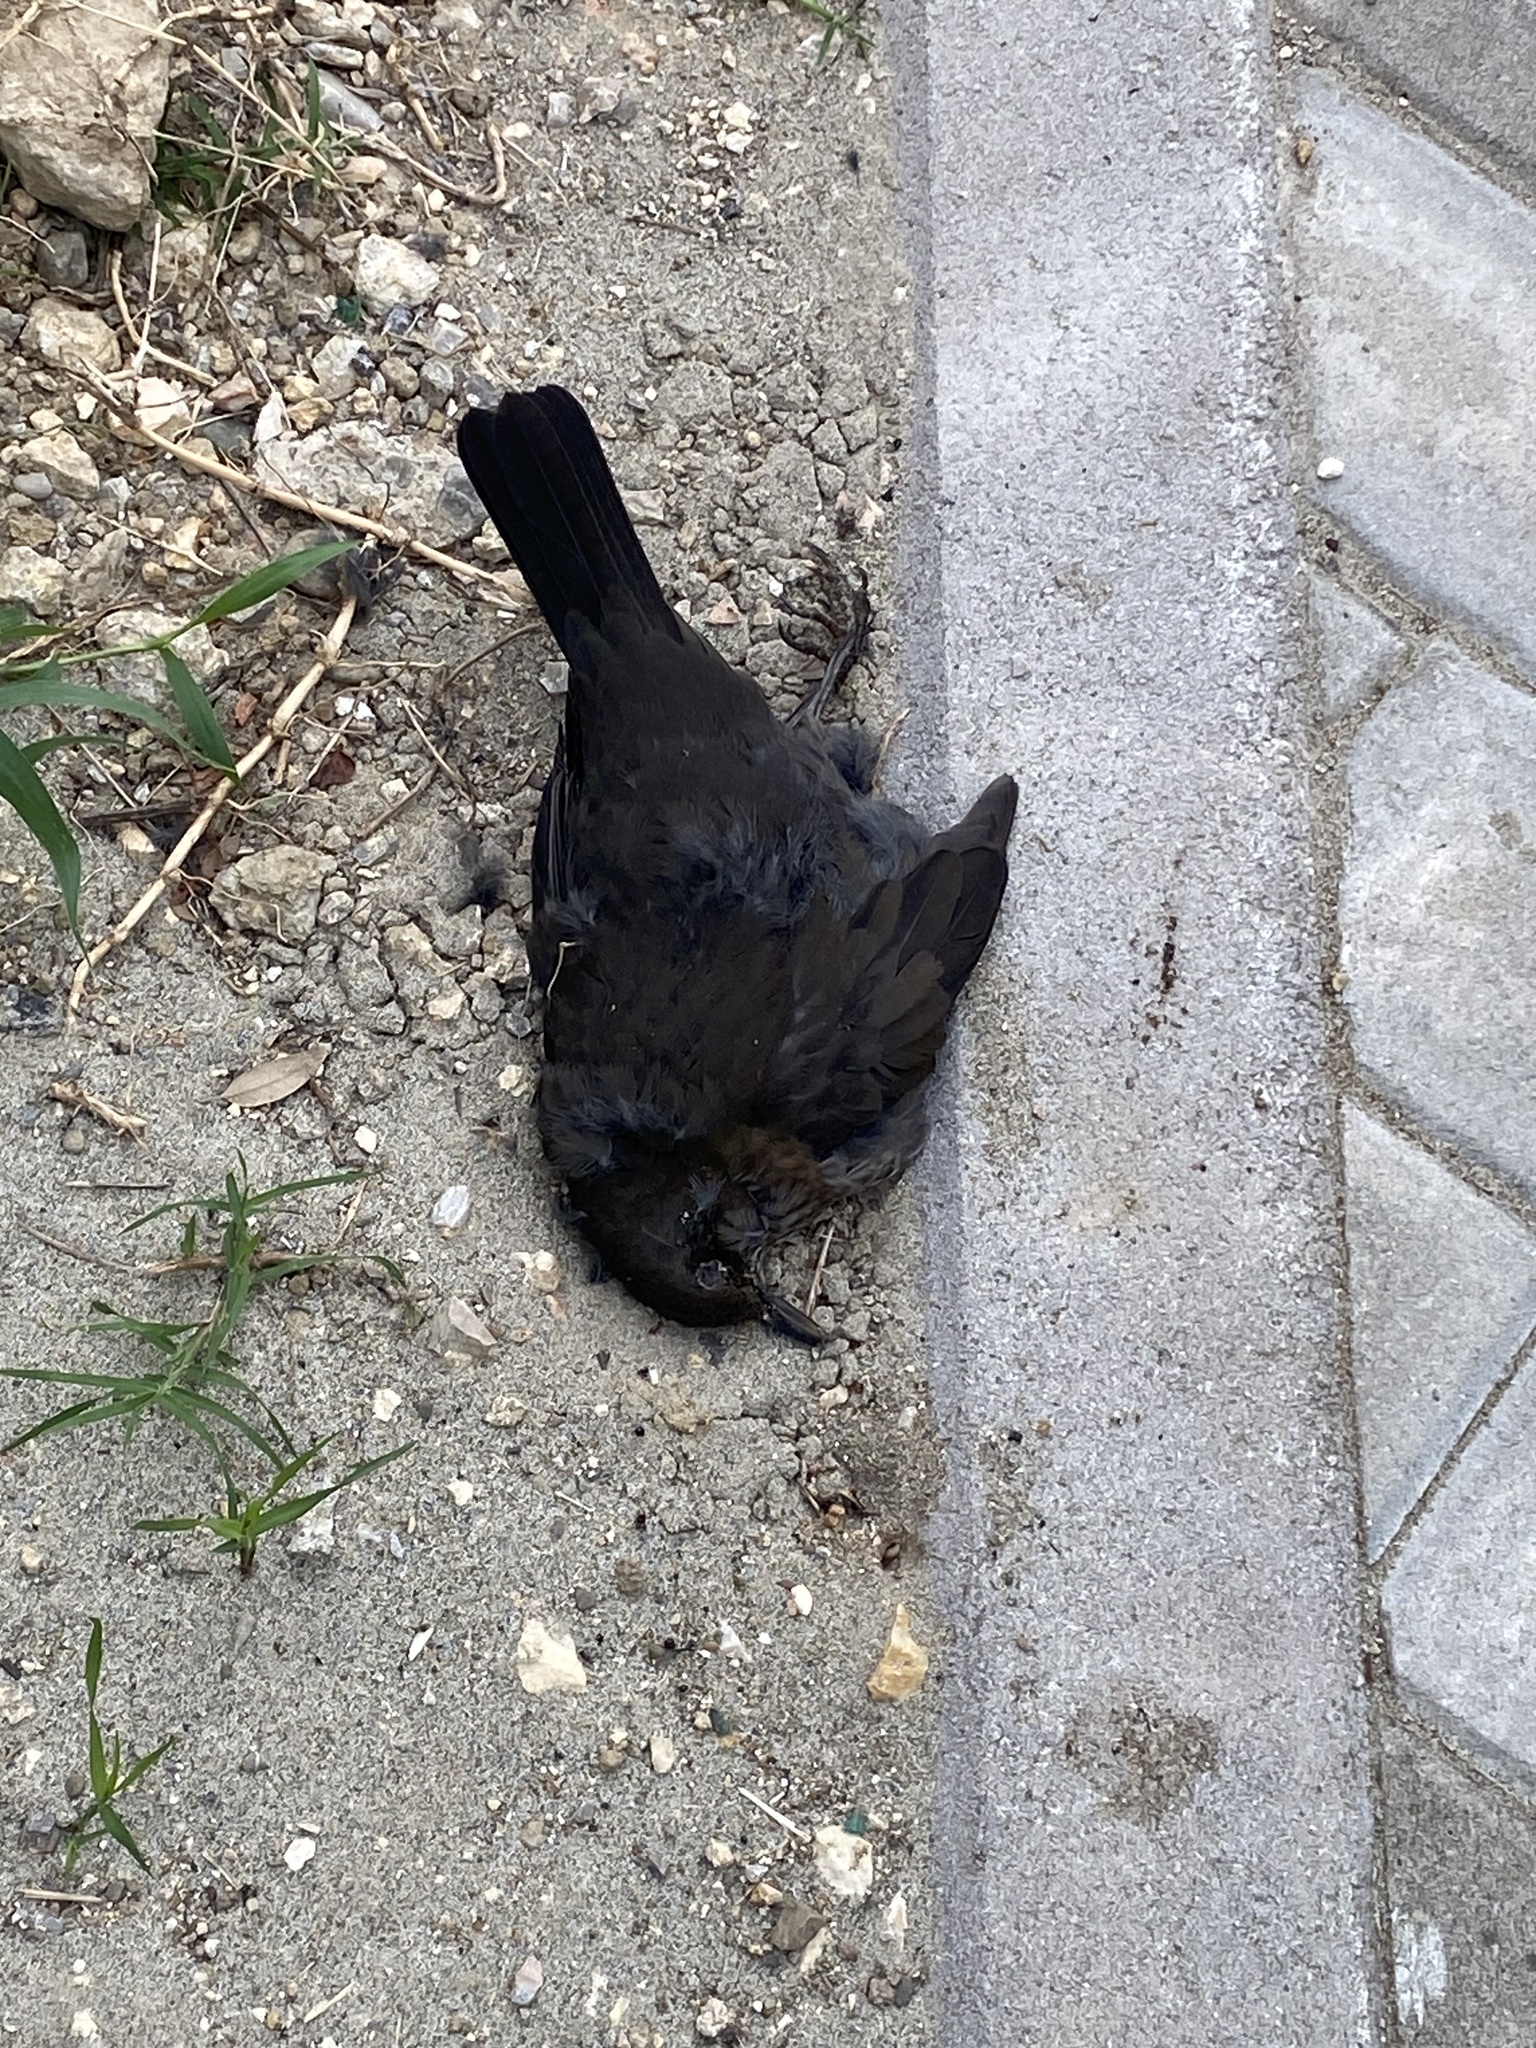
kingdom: Animalia
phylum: Chordata
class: Aves
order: Passeriformes
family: Turdidae
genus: Turdus
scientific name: Turdus merula
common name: Common blackbird
